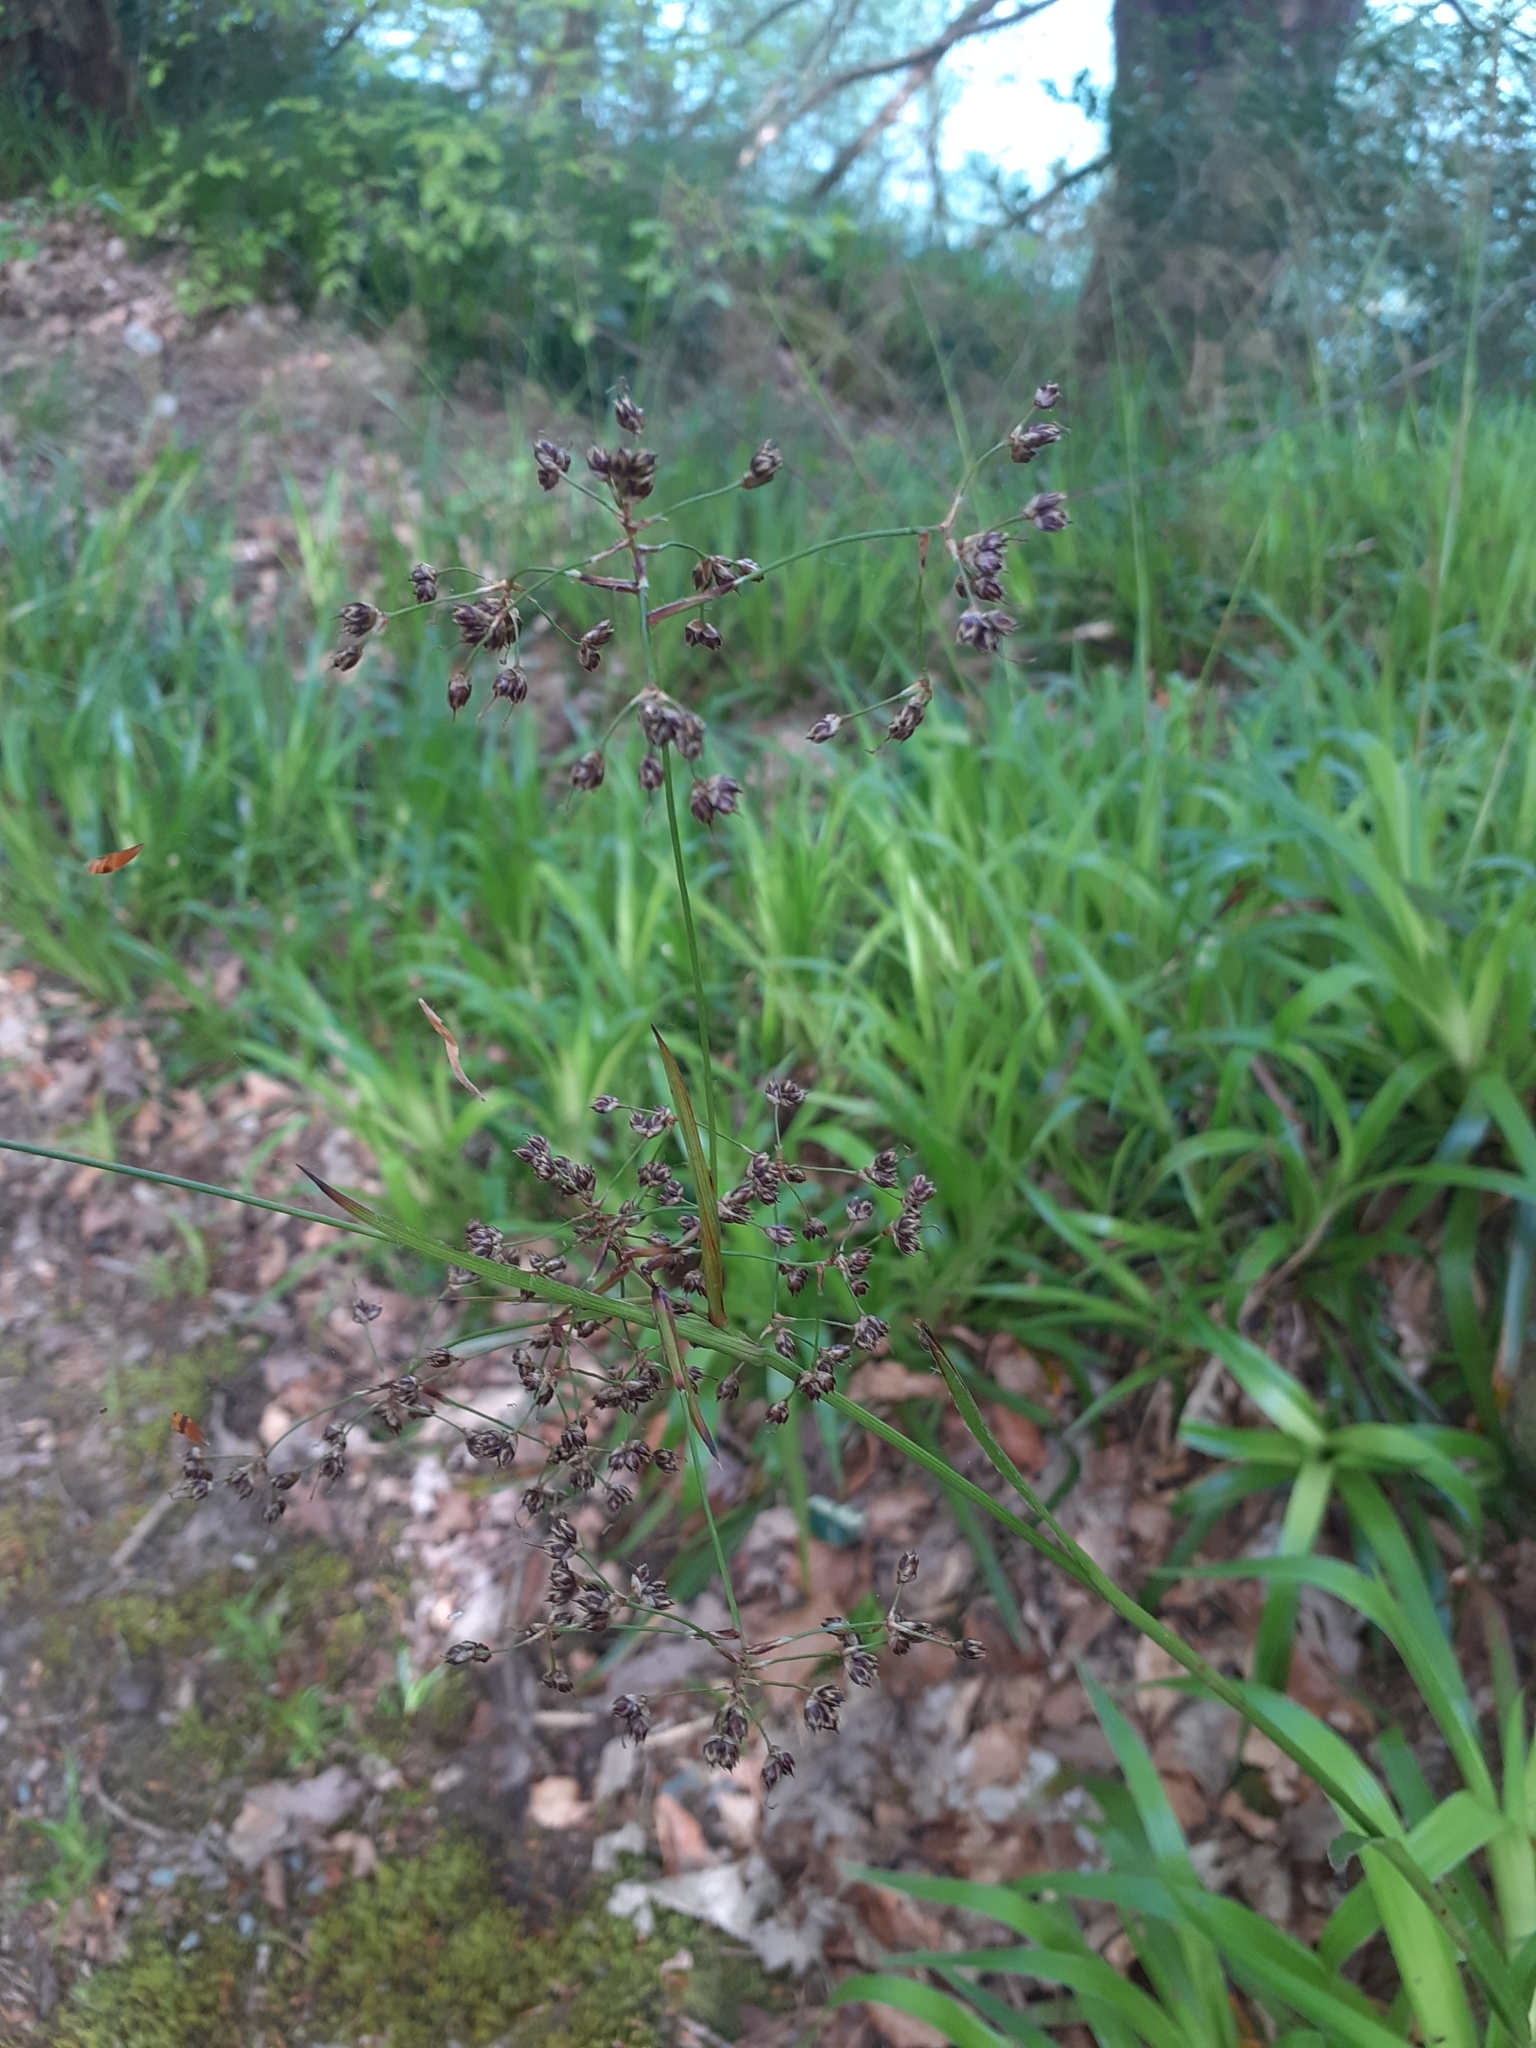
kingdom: Plantae
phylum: Tracheophyta
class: Liliopsida
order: Poales
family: Juncaceae
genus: Luzula
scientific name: Luzula sylvatica
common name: Great wood-rush
